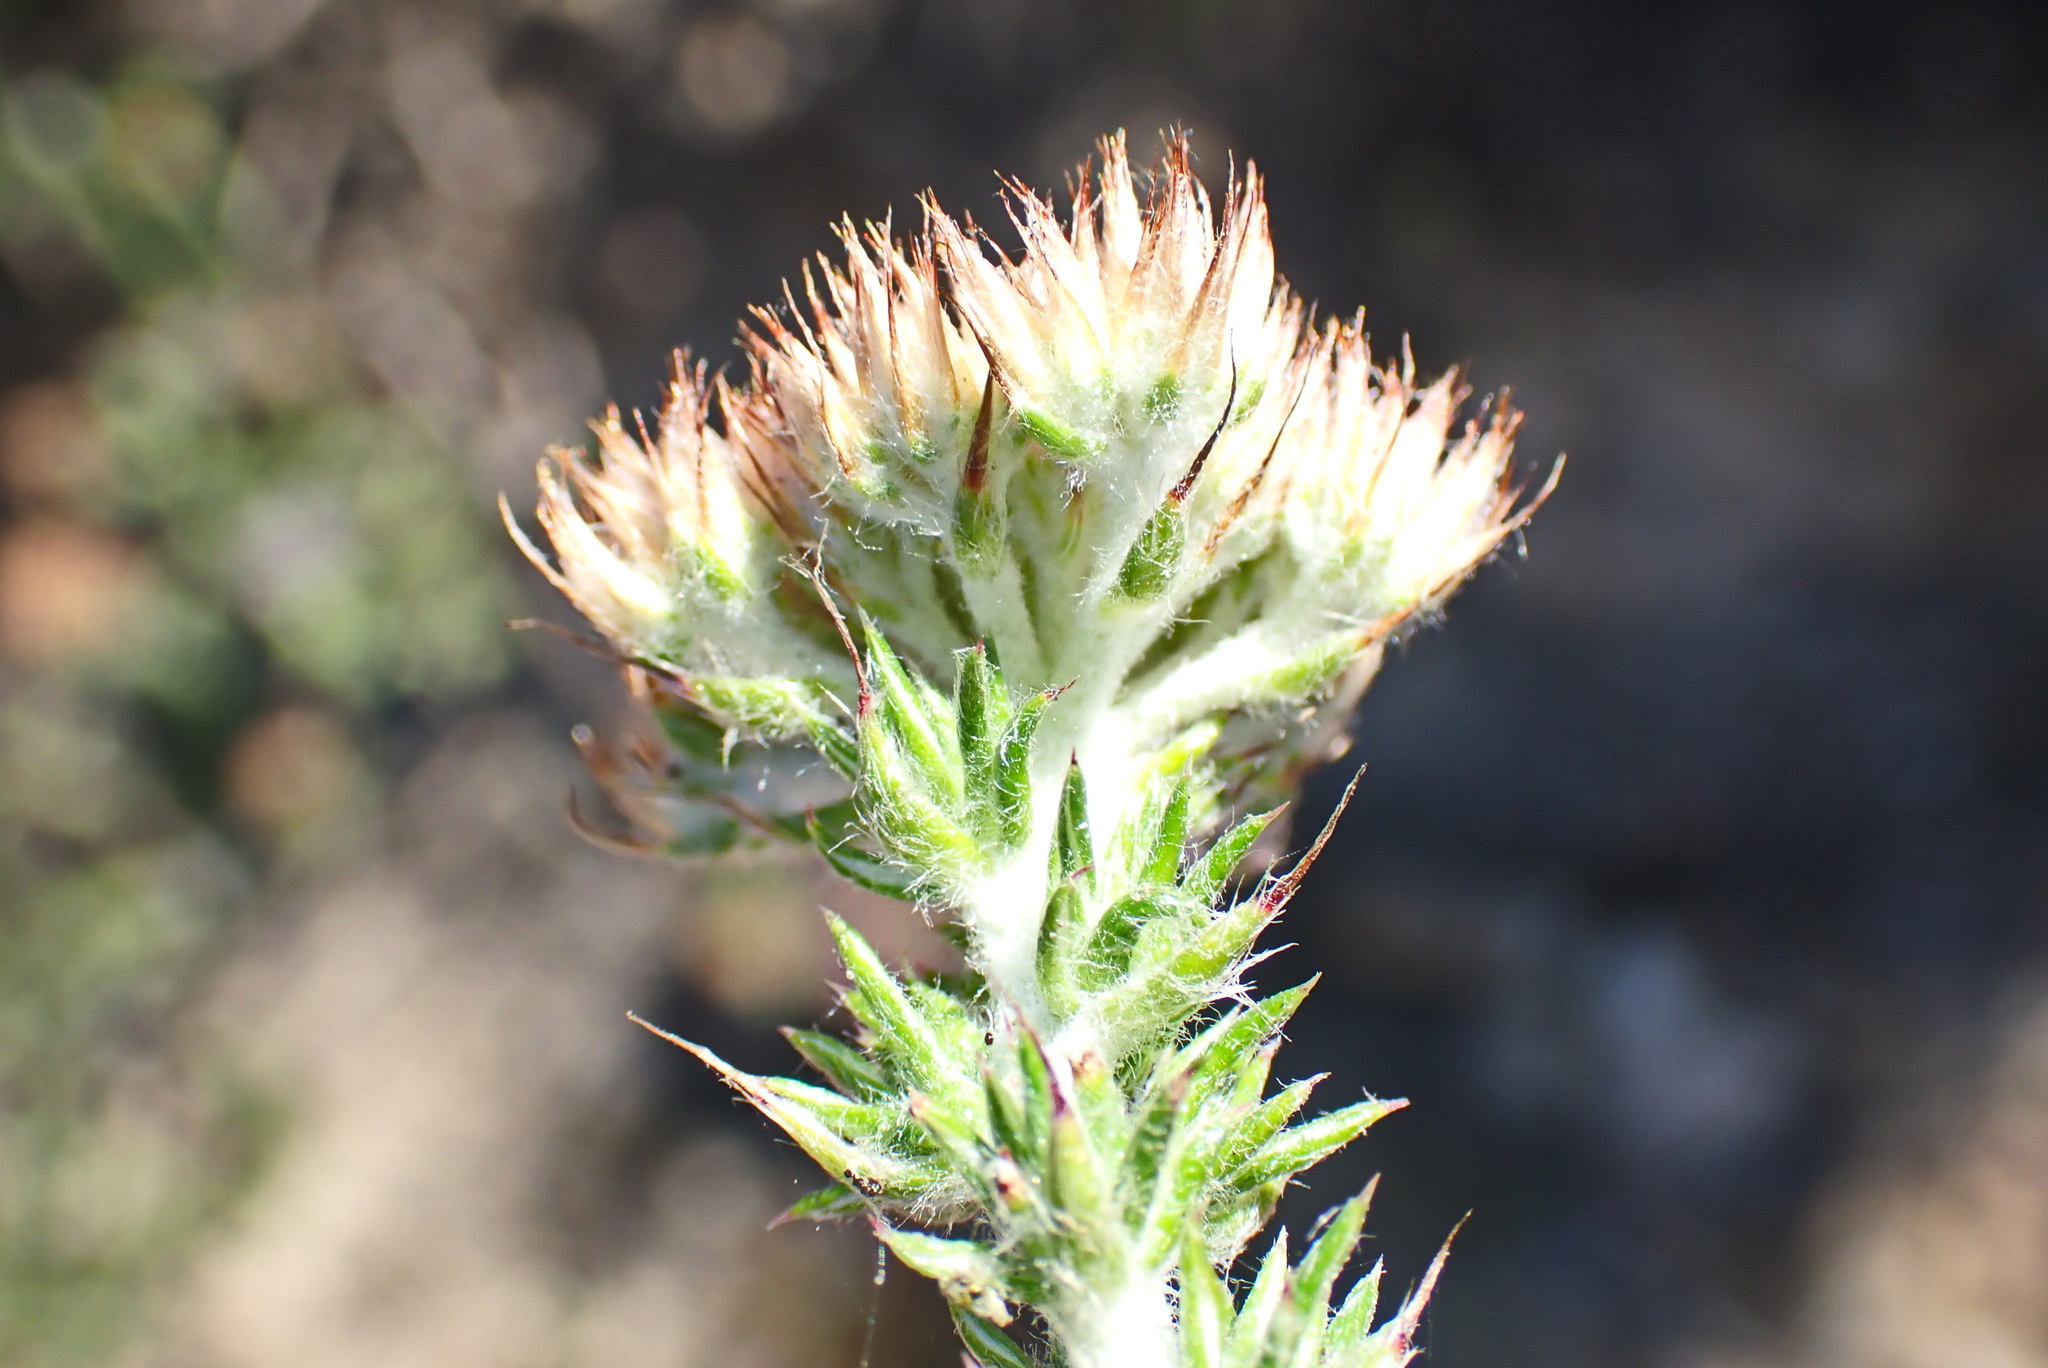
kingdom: Plantae
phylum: Tracheophyta
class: Magnoliopsida
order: Asterales
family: Asteraceae
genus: Metalasia
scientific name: Metalasia pungens
